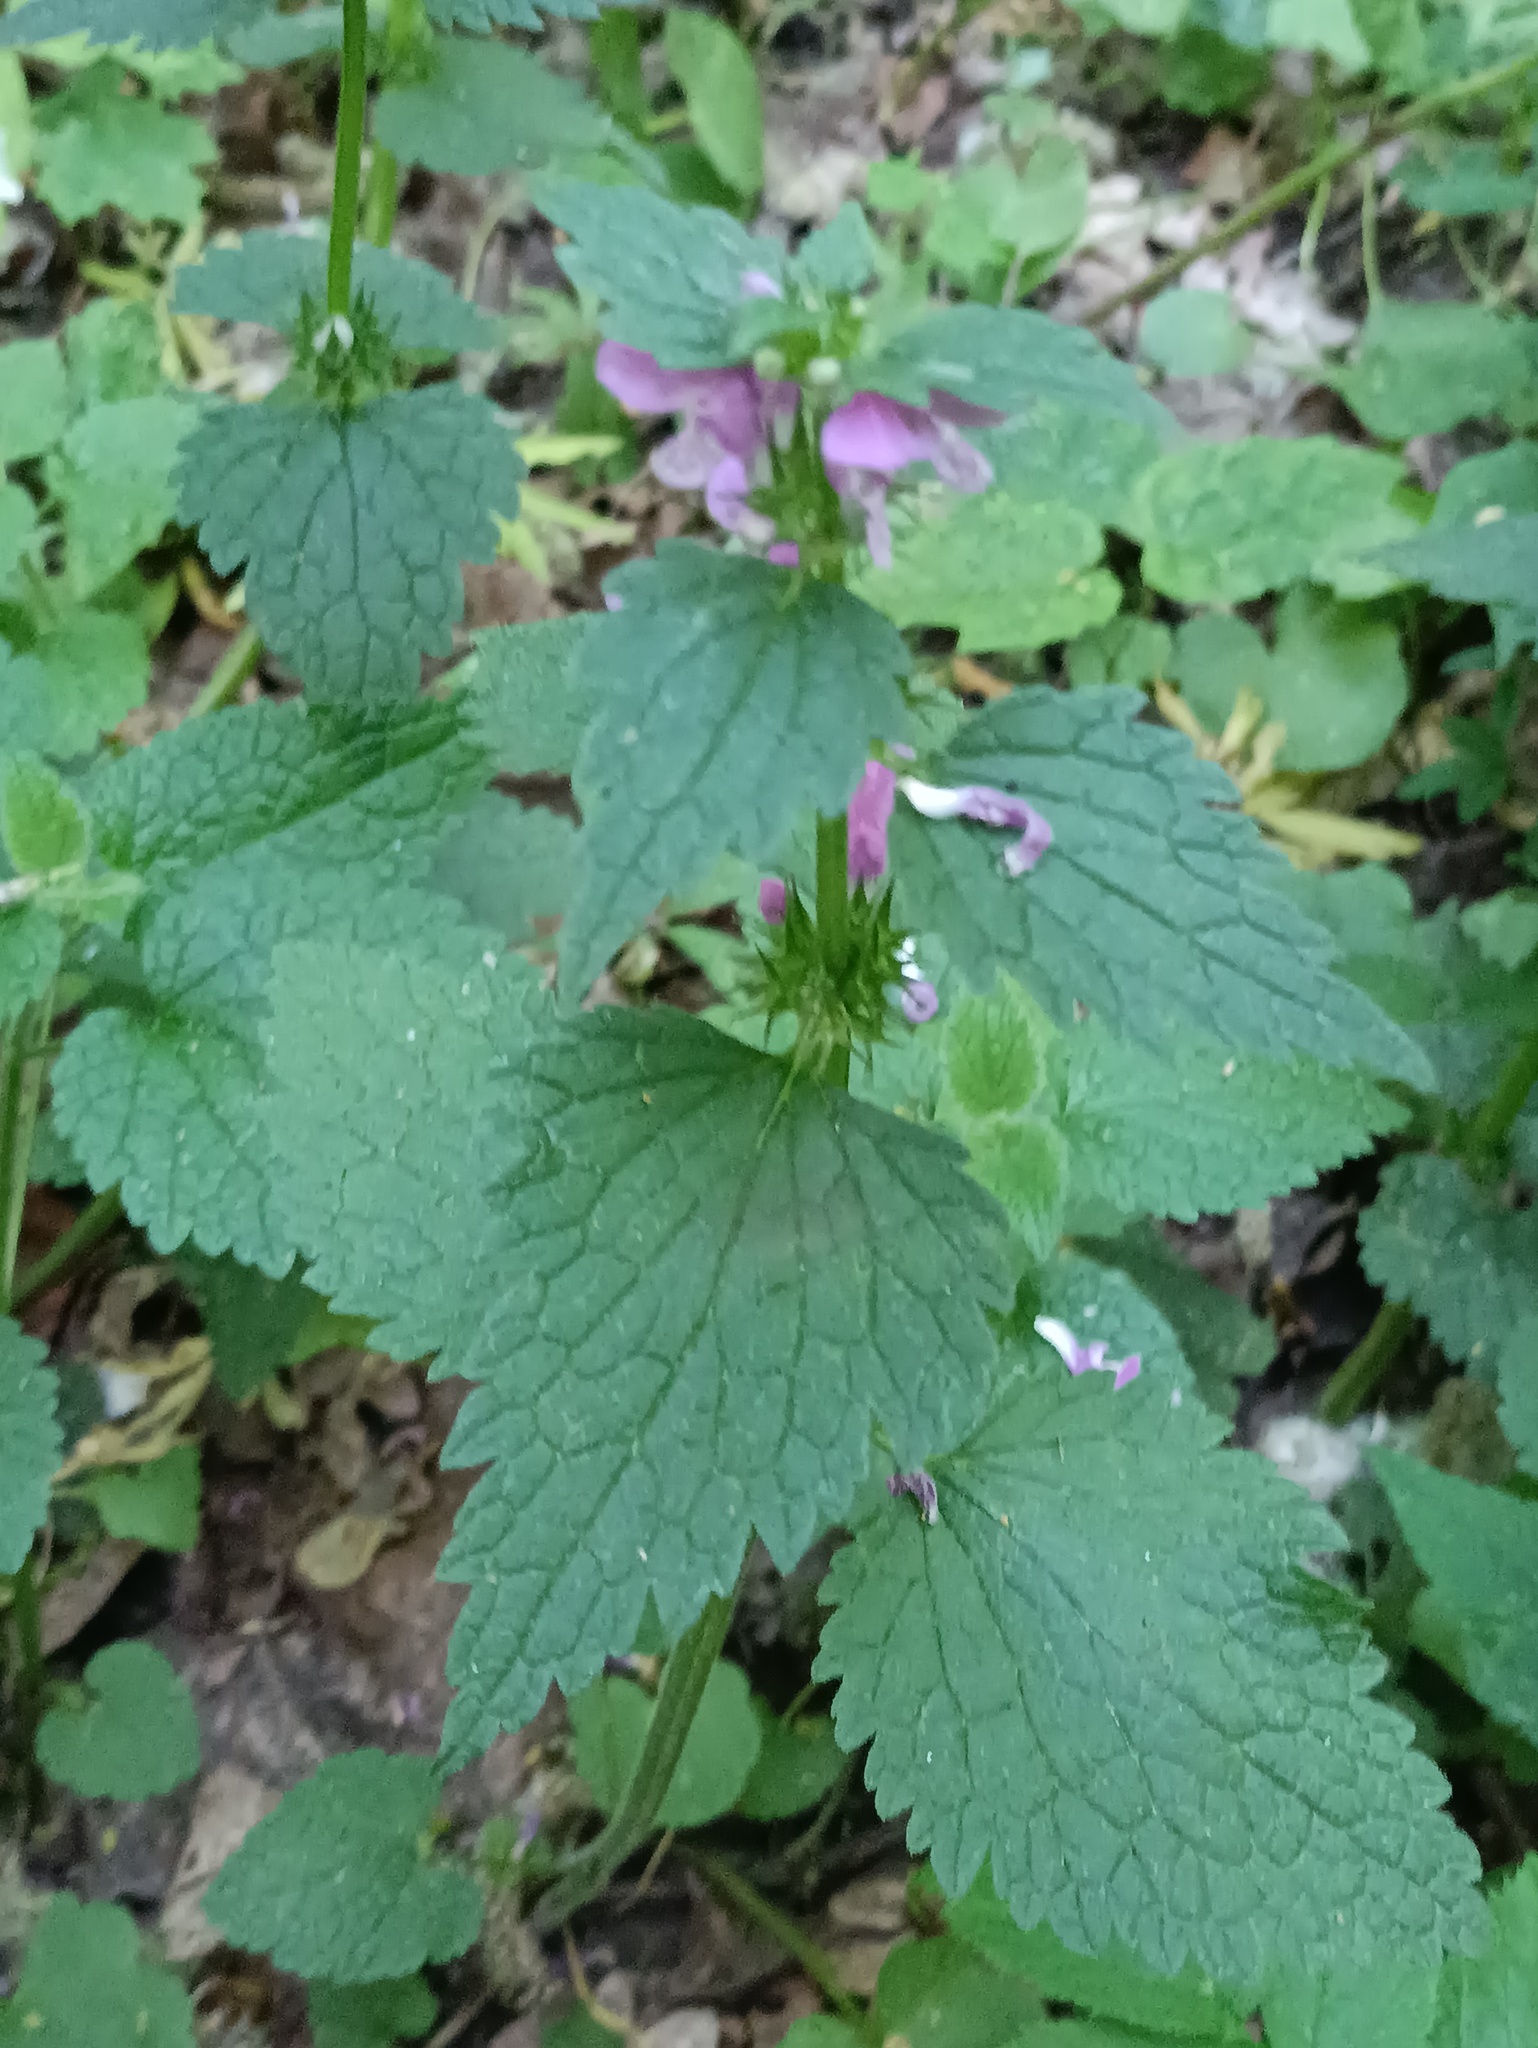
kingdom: Plantae
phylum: Tracheophyta
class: Magnoliopsida
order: Lamiales
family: Lamiaceae
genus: Lamium
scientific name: Lamium maculatum
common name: Spotted dead-nettle
